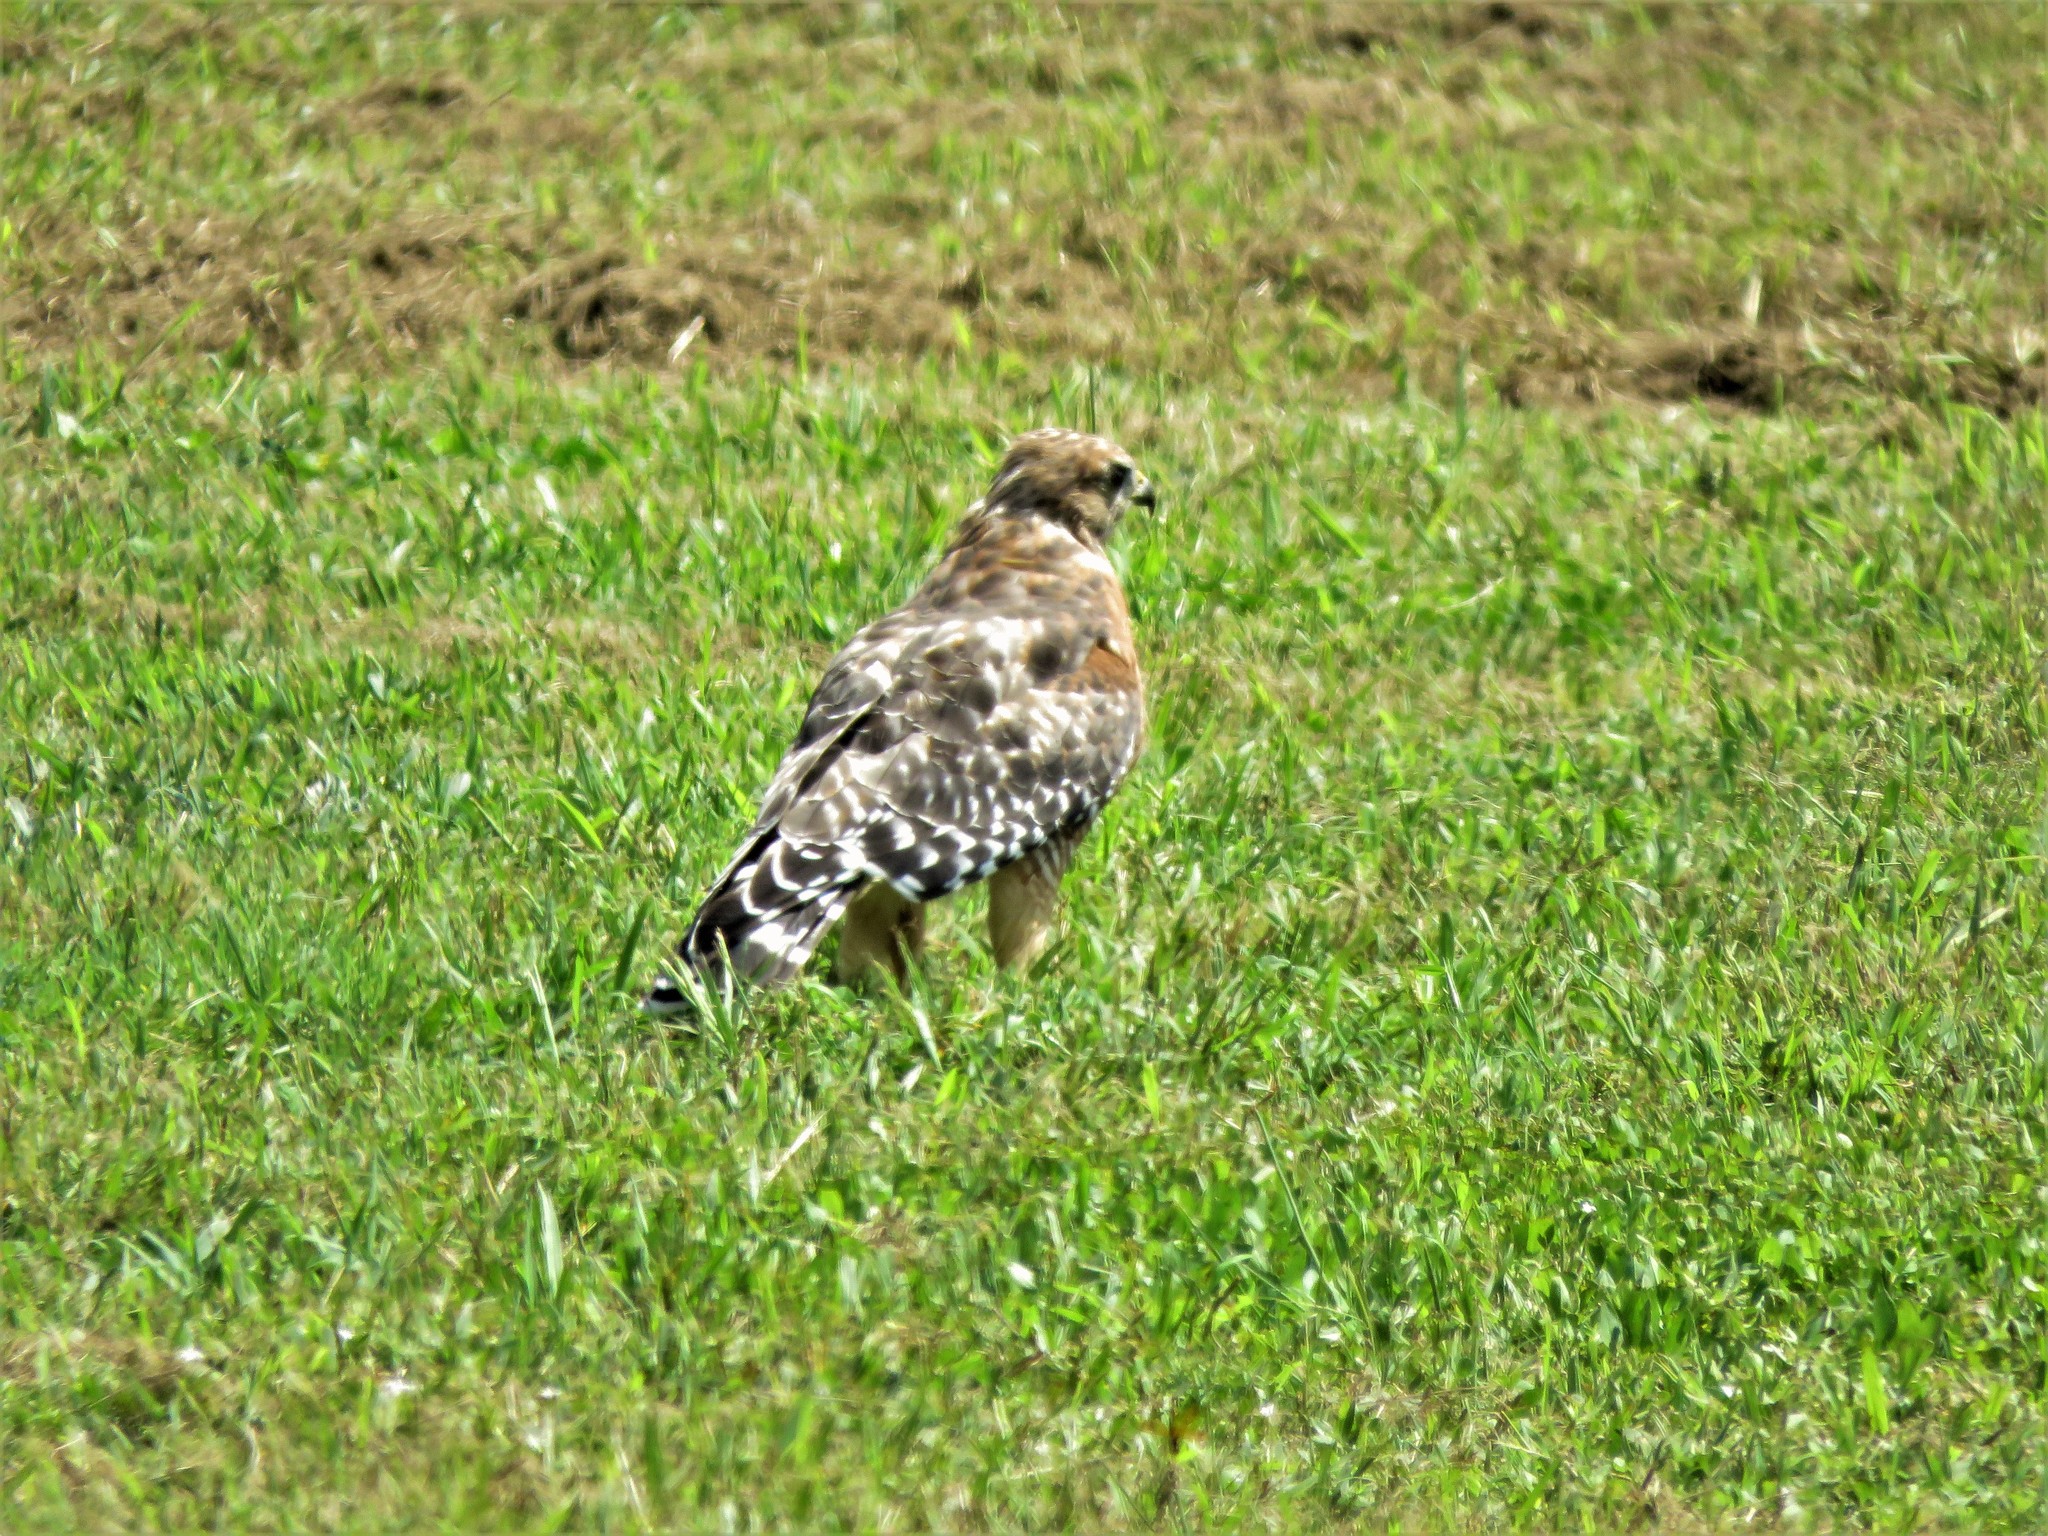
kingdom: Animalia
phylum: Chordata
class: Aves
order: Accipitriformes
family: Accipitridae
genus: Buteo
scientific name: Buteo lineatus
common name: Red-shouldered hawk
